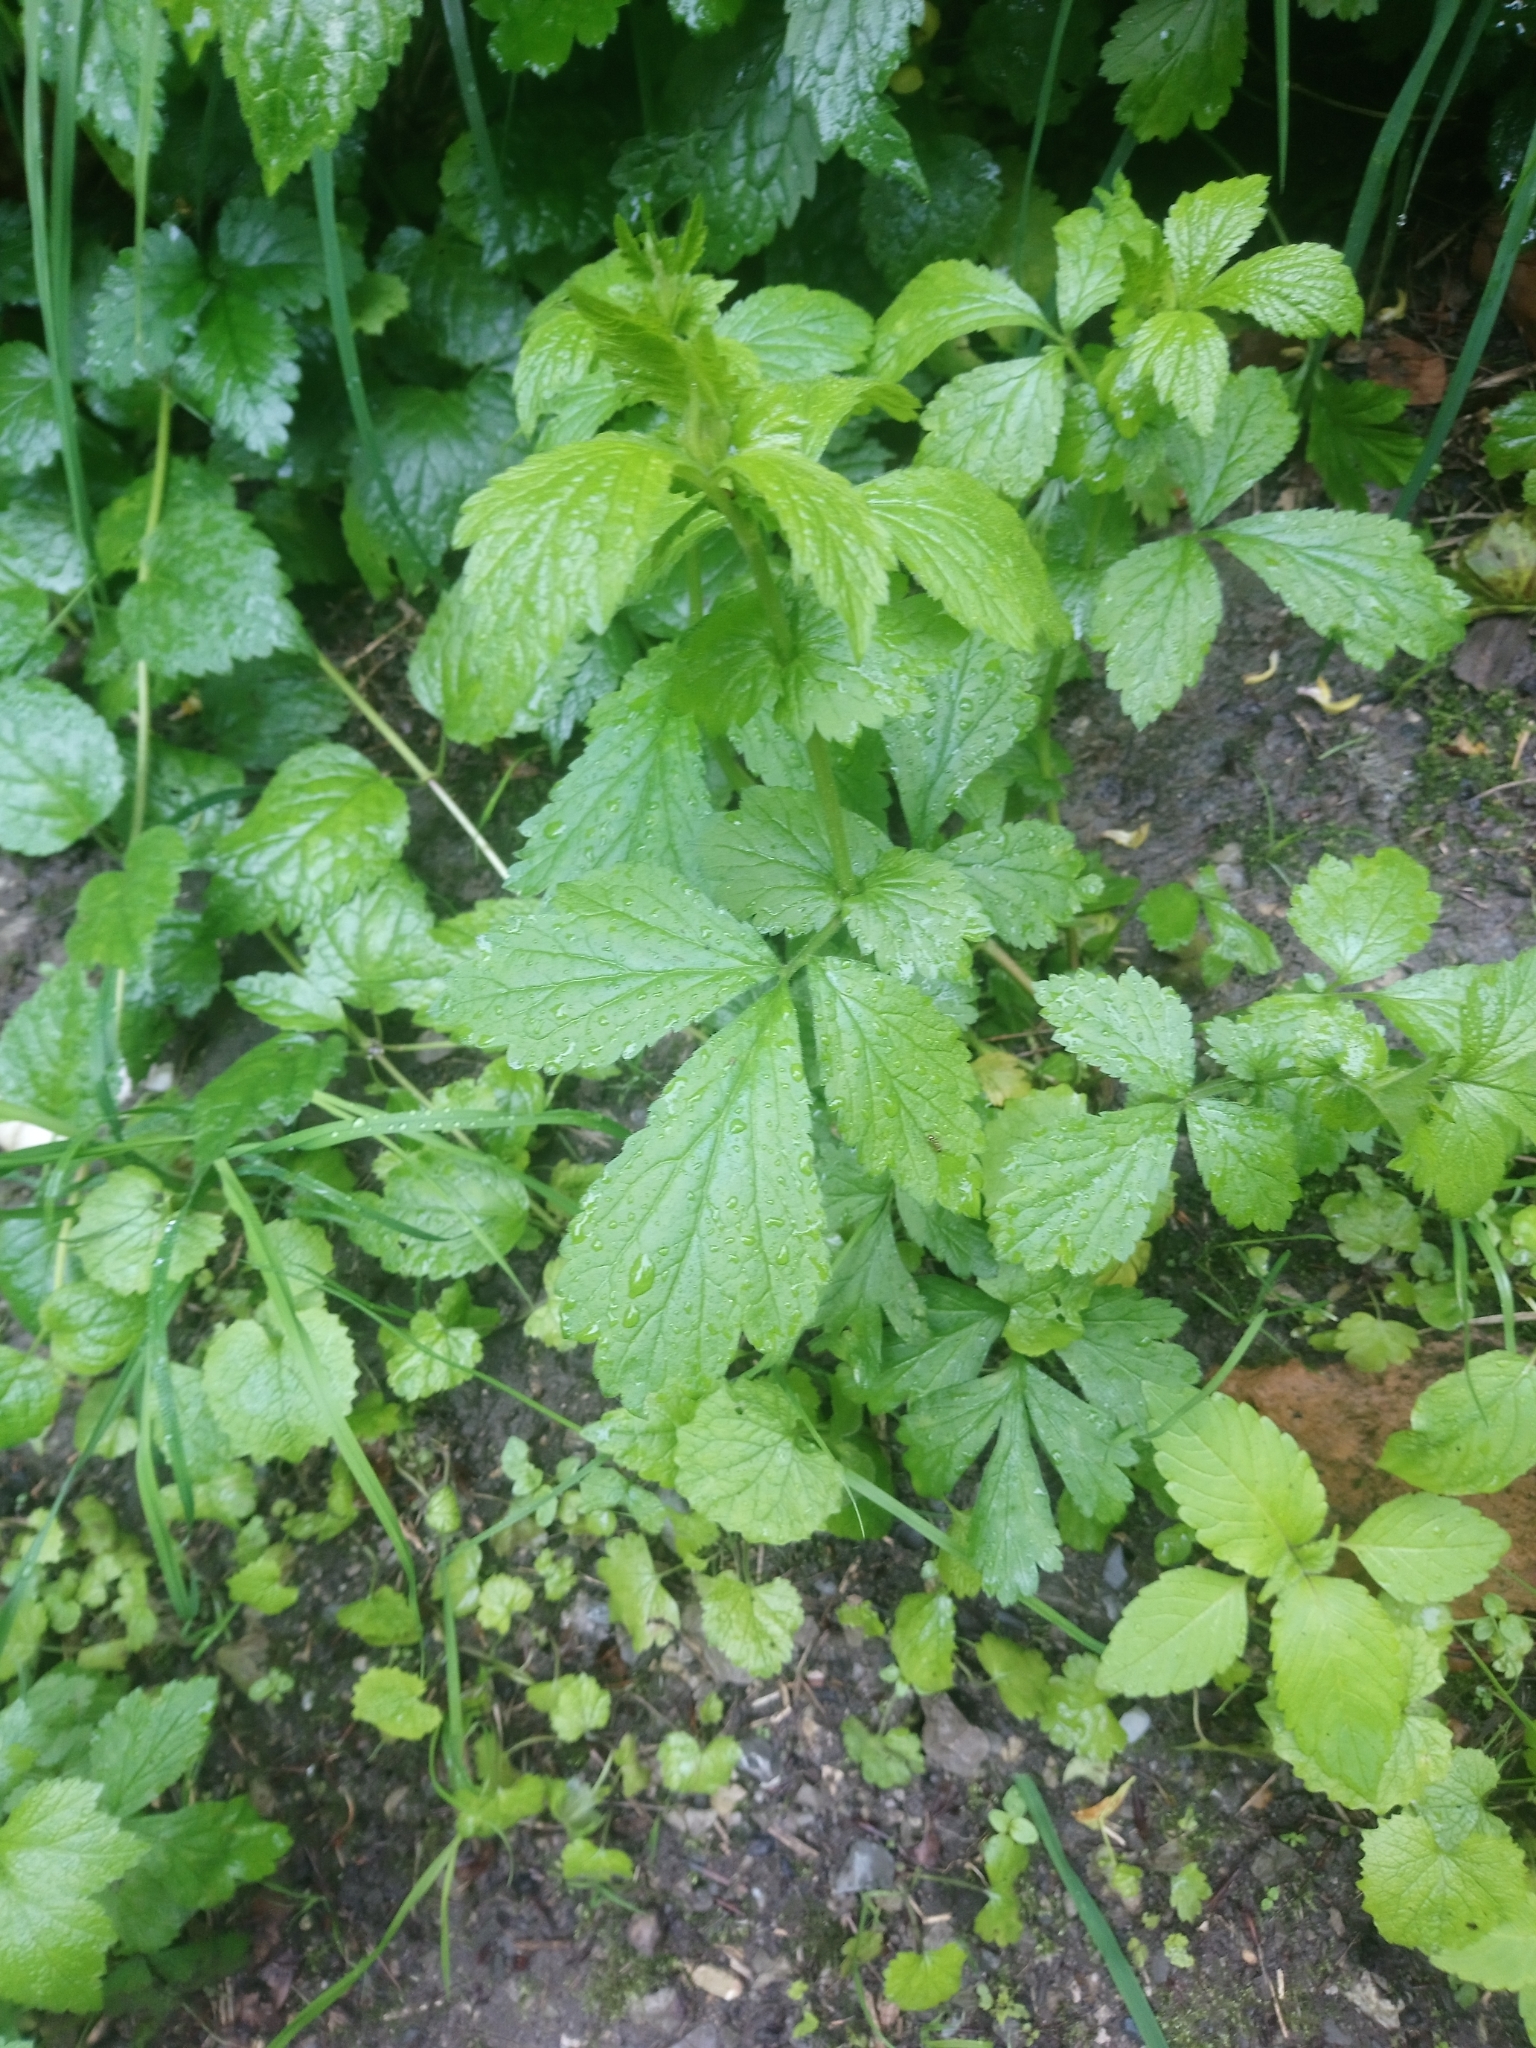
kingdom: Plantae
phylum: Tracheophyta
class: Magnoliopsida
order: Rosales
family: Rosaceae
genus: Geum
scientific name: Geum urbanum
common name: Wood avens
